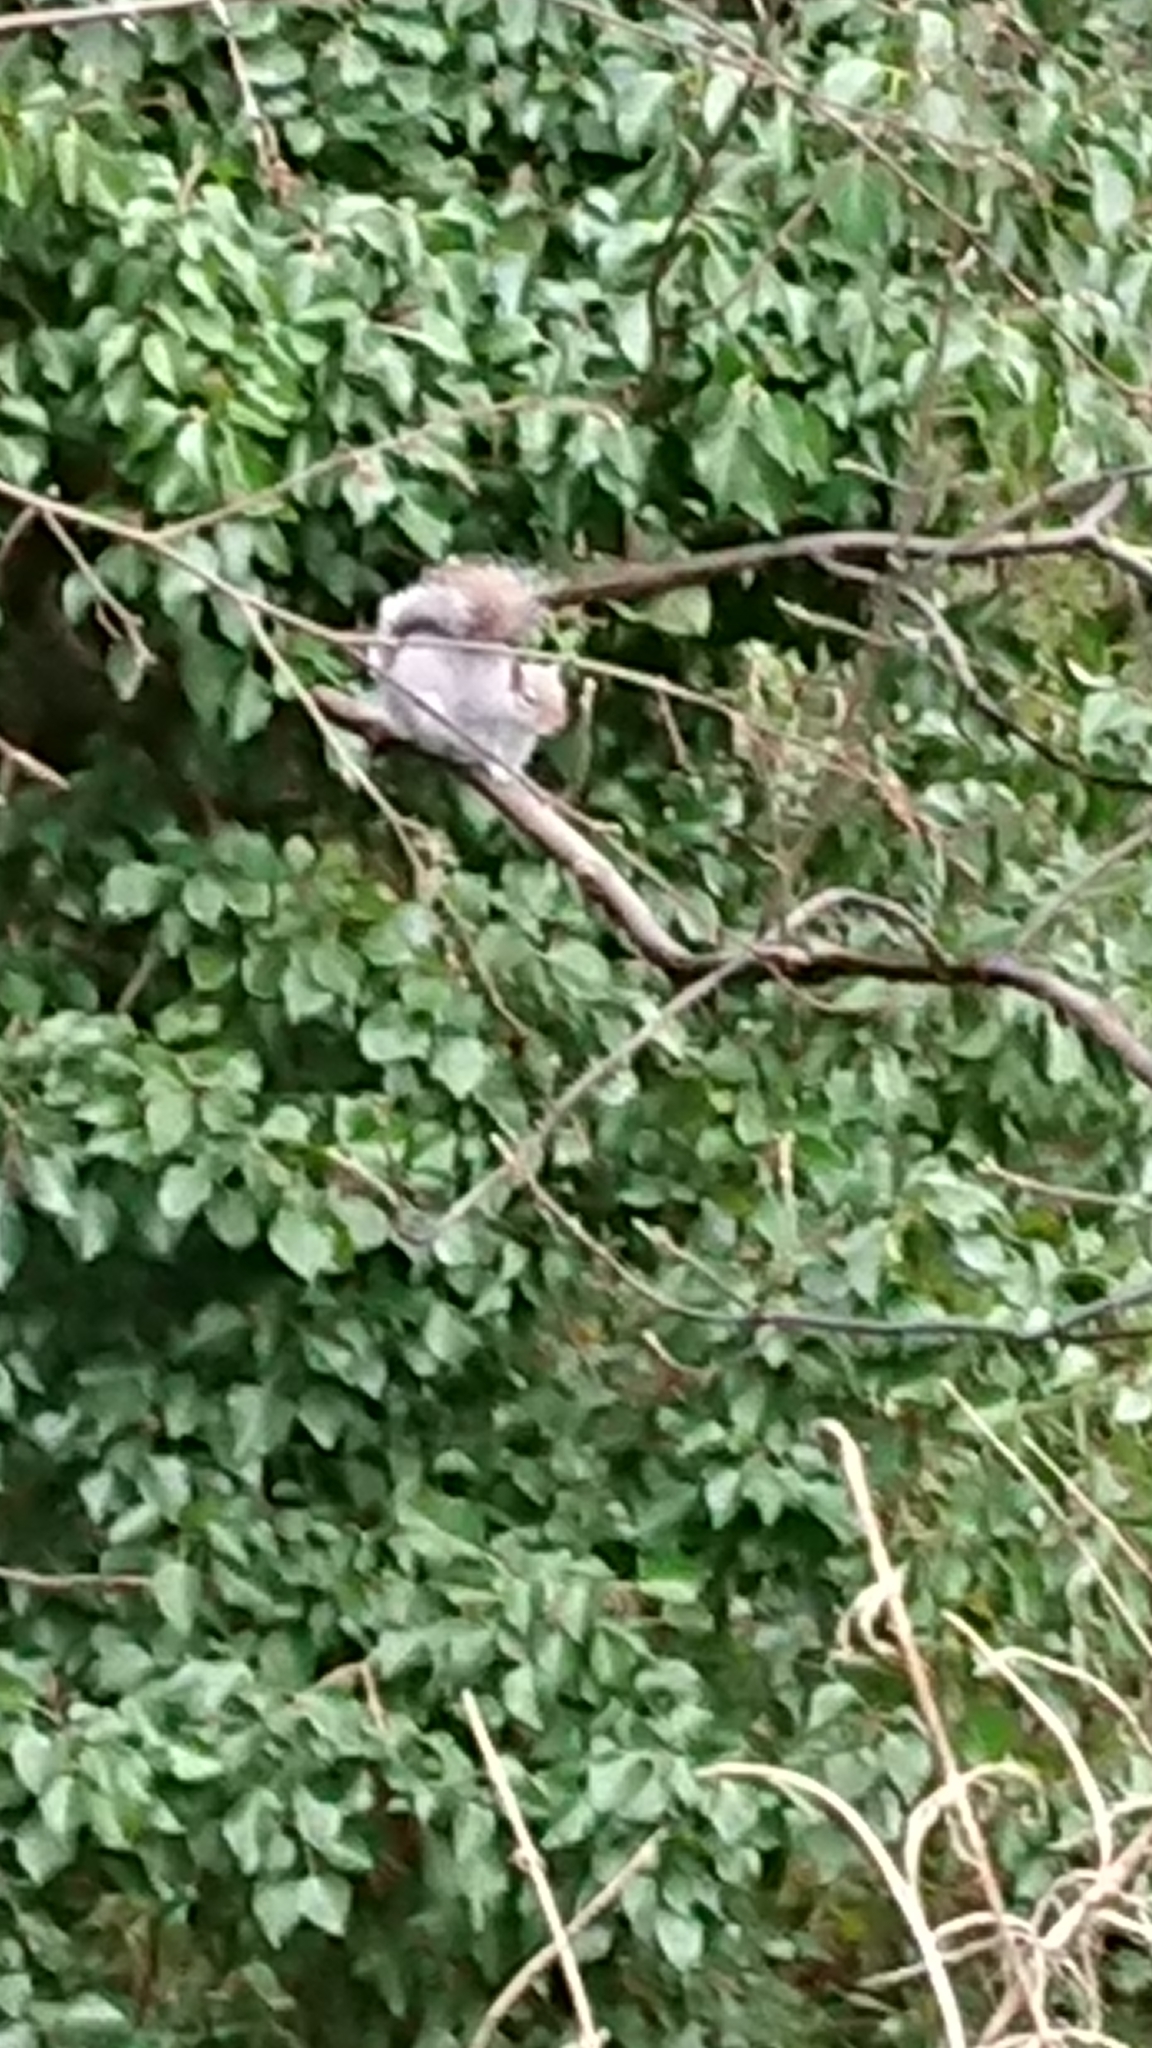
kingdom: Animalia
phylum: Chordata
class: Mammalia
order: Rodentia
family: Sciuridae
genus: Sciurus
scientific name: Sciurus carolinensis
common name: Eastern gray squirrel
